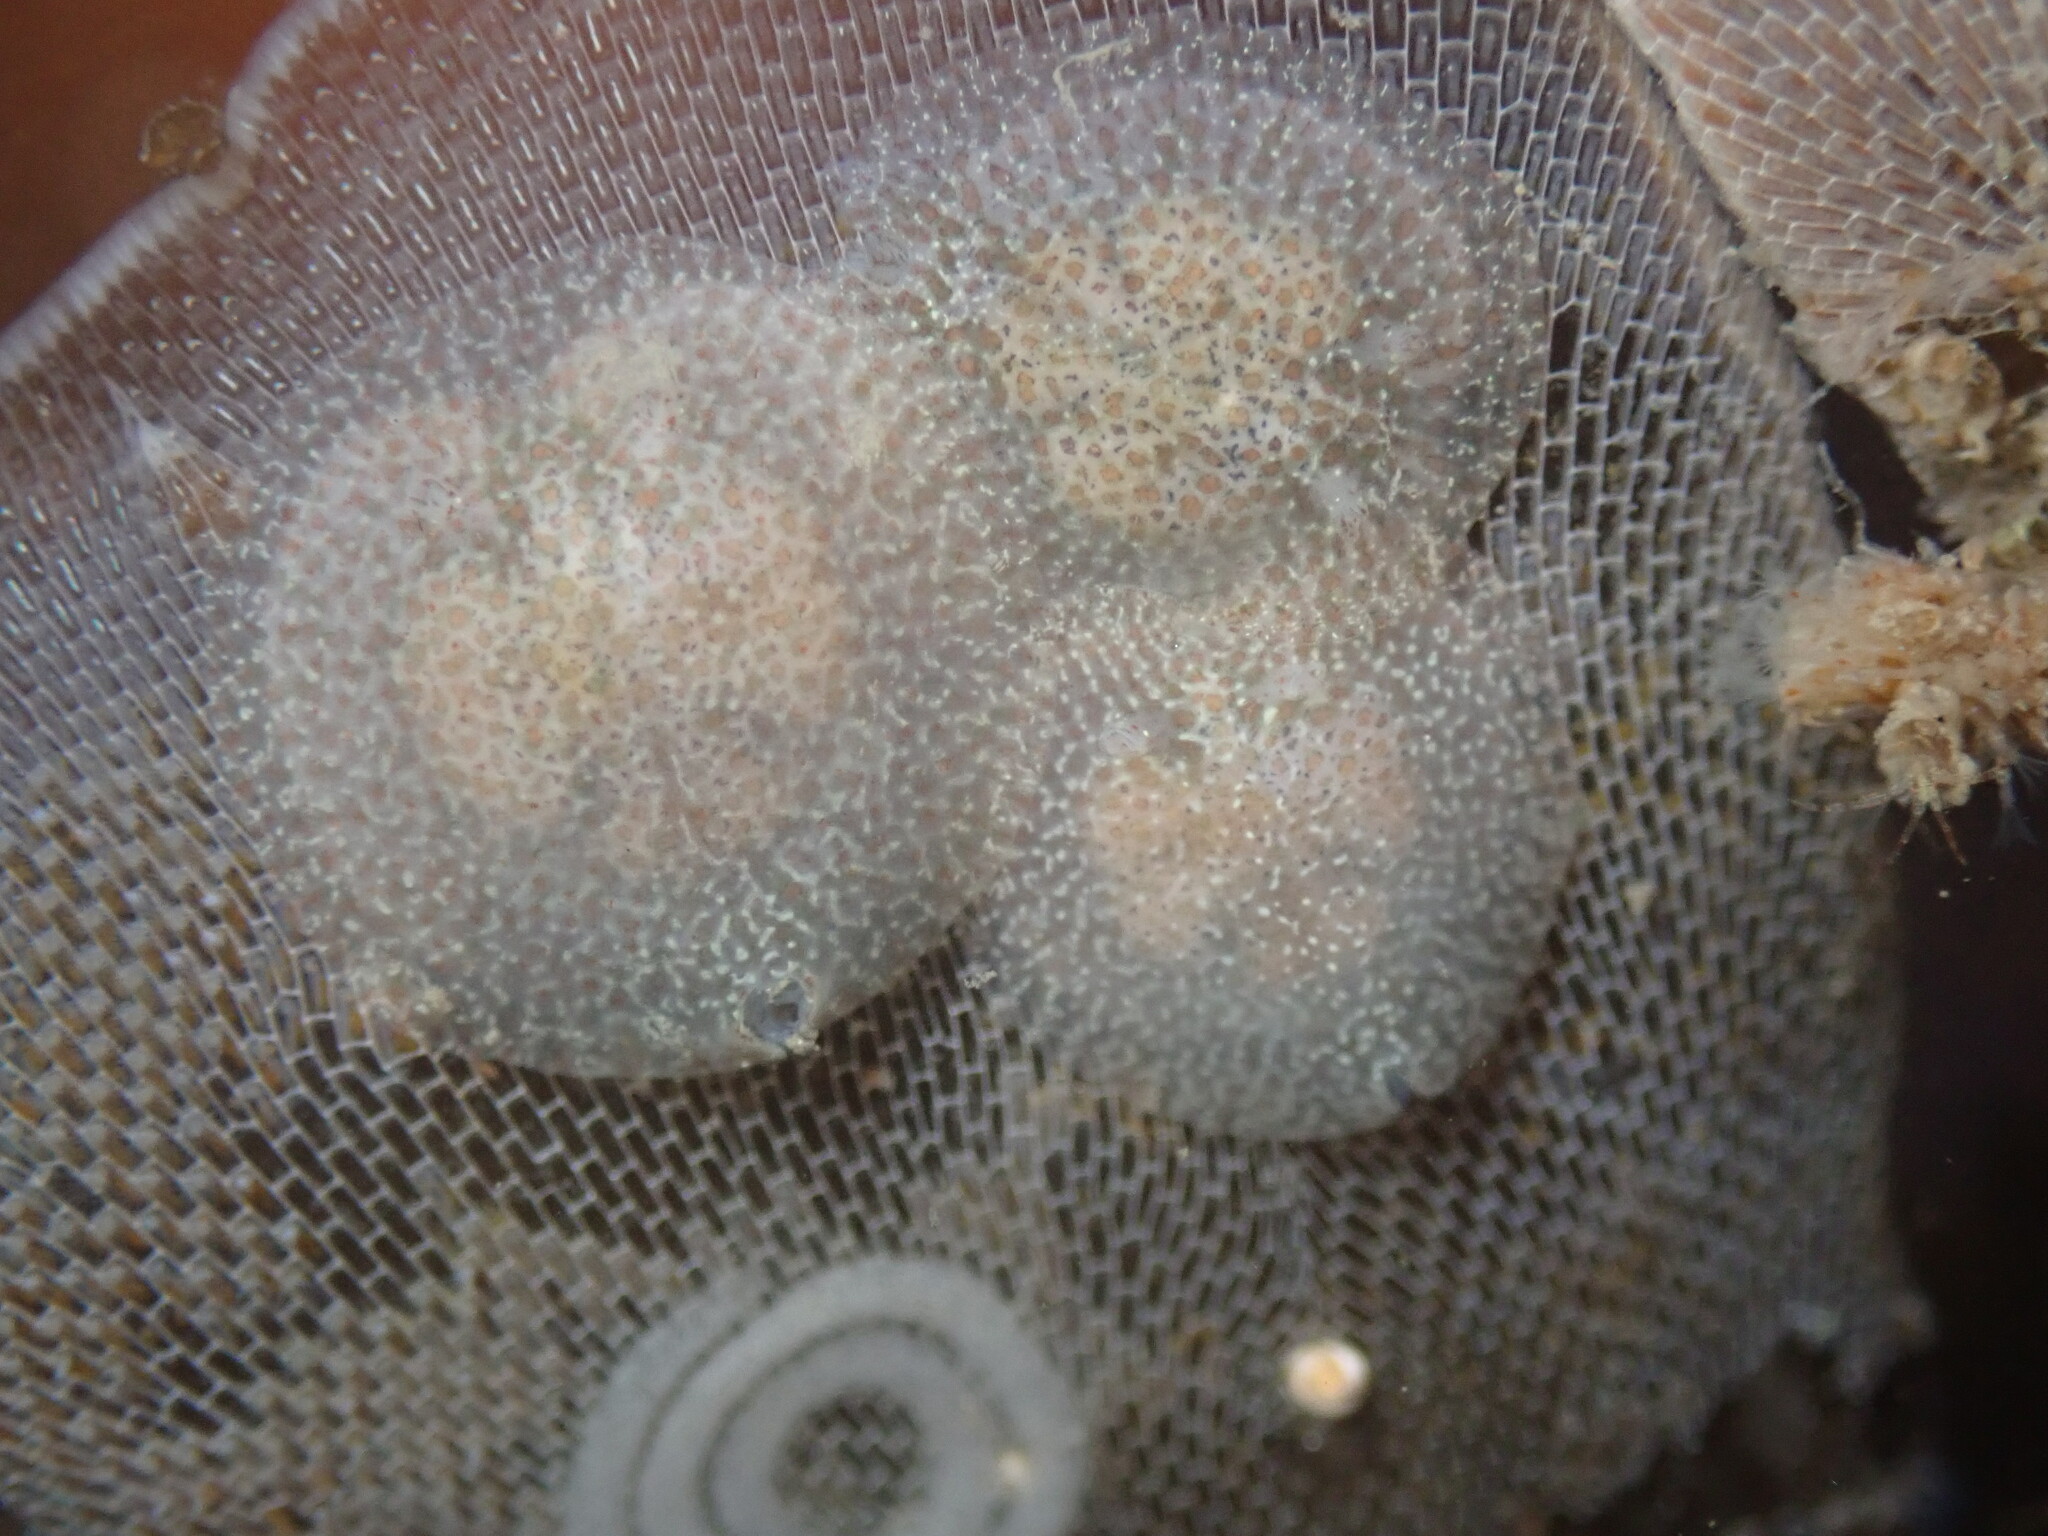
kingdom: Animalia
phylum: Mollusca
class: Gastropoda
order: Nudibranchia
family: Corambidae
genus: Corambe
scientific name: Corambe pacifica
